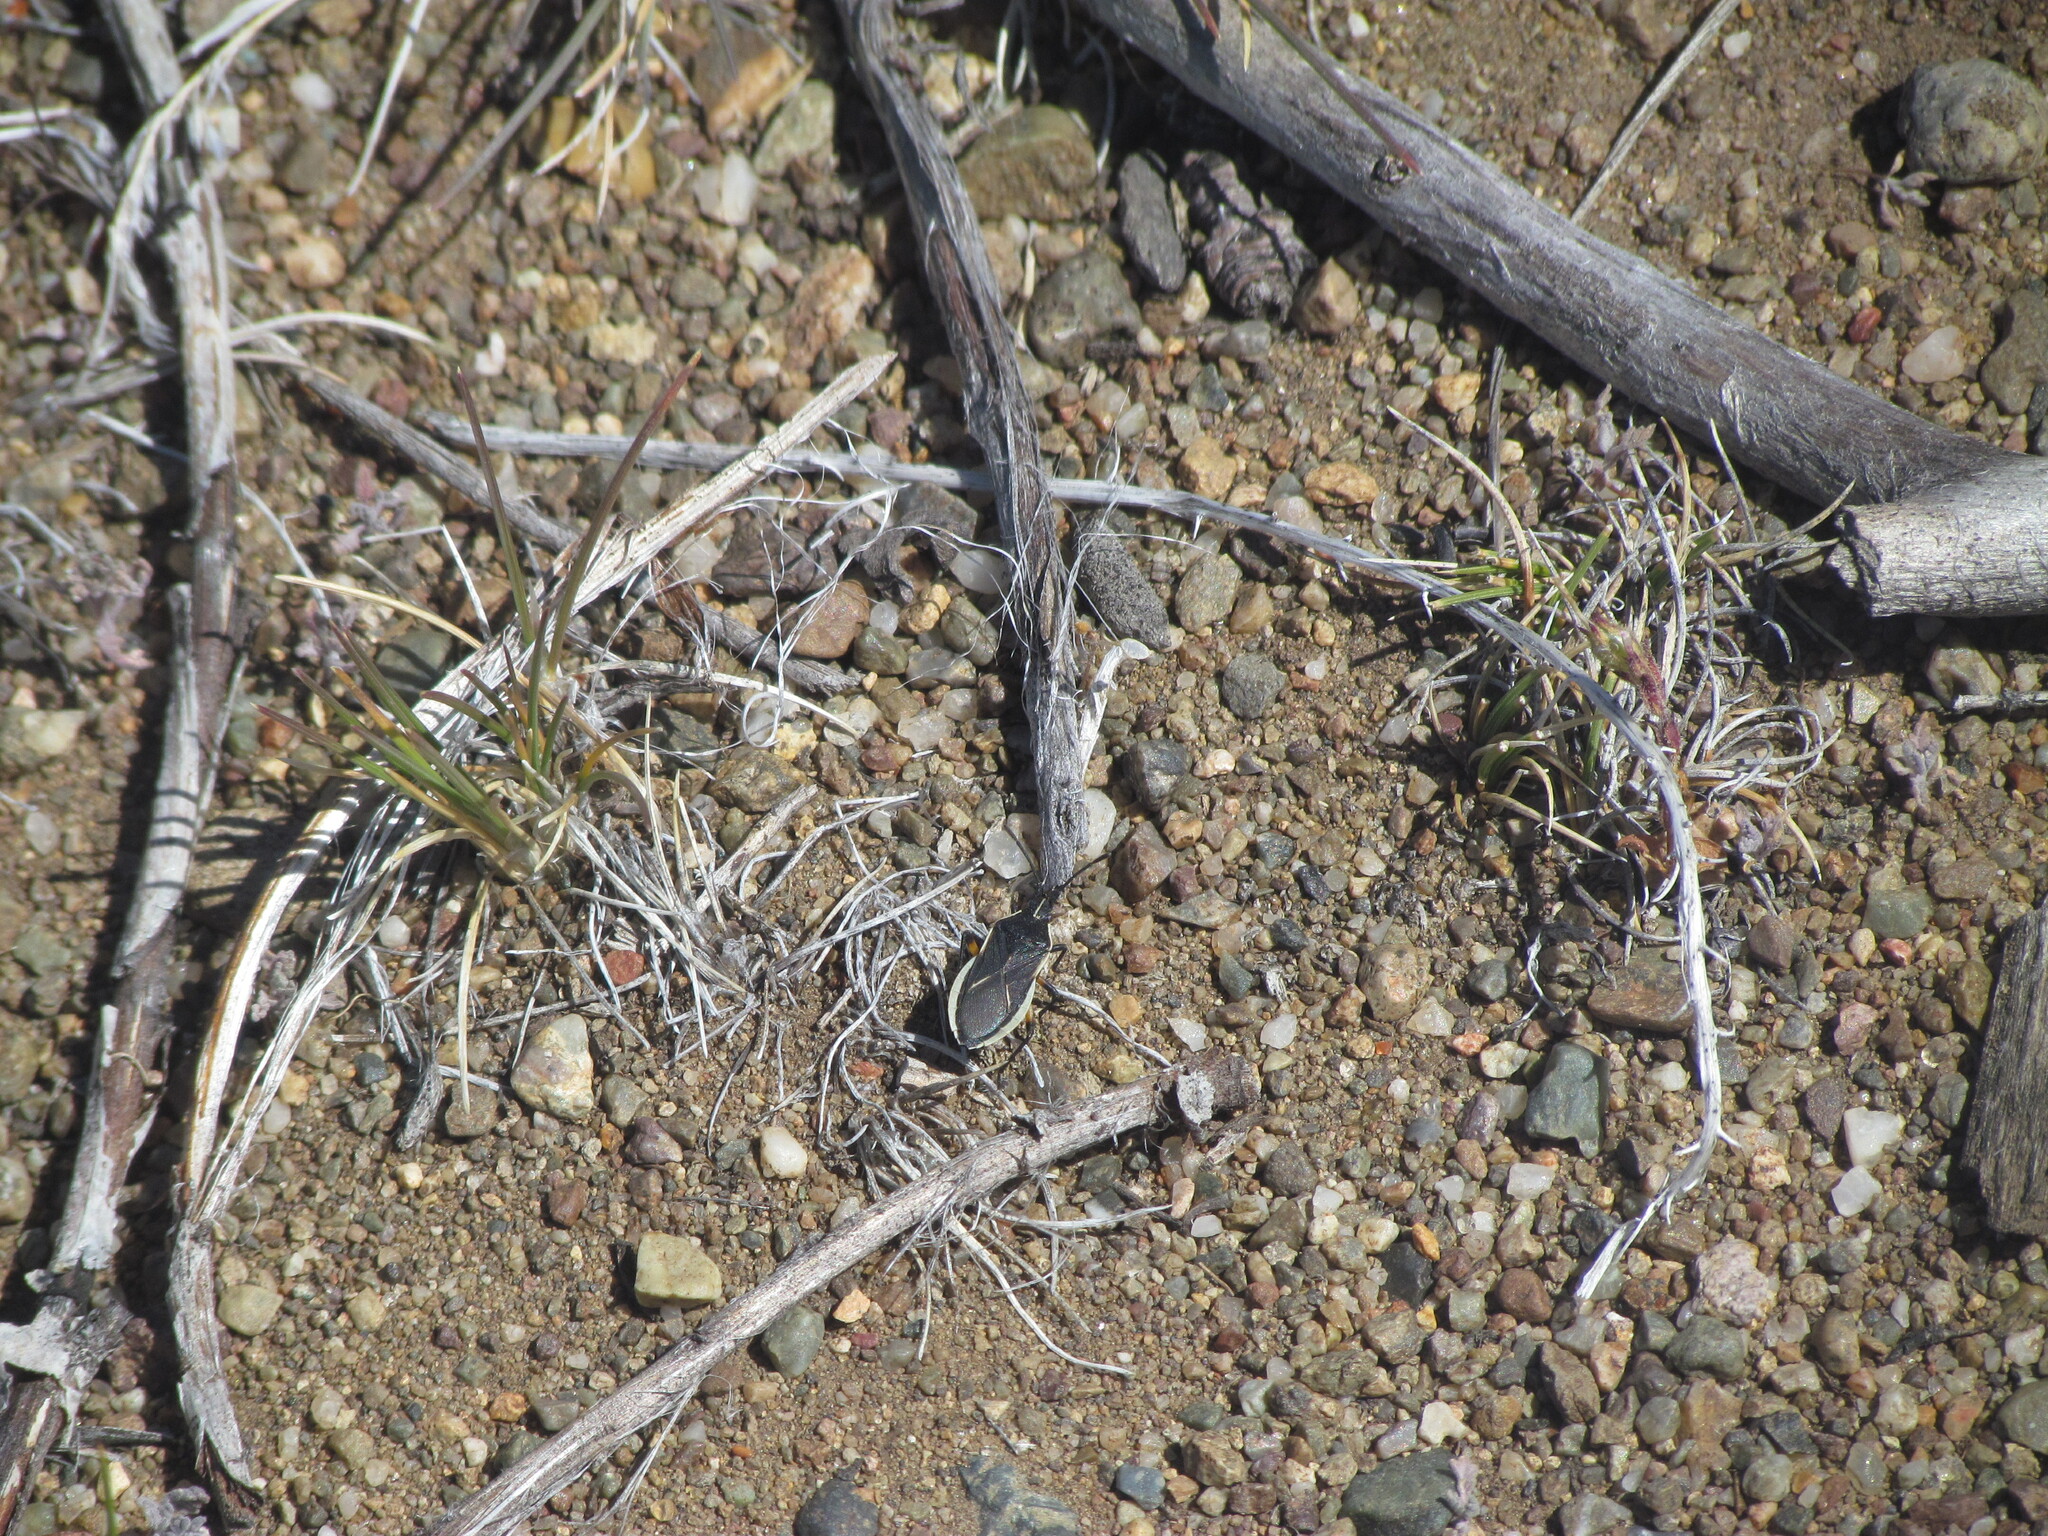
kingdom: Animalia
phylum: Arthropoda
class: Insecta
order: Hemiptera
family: Coreidae
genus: Eldarca
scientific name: Eldarca nigroscutellata
